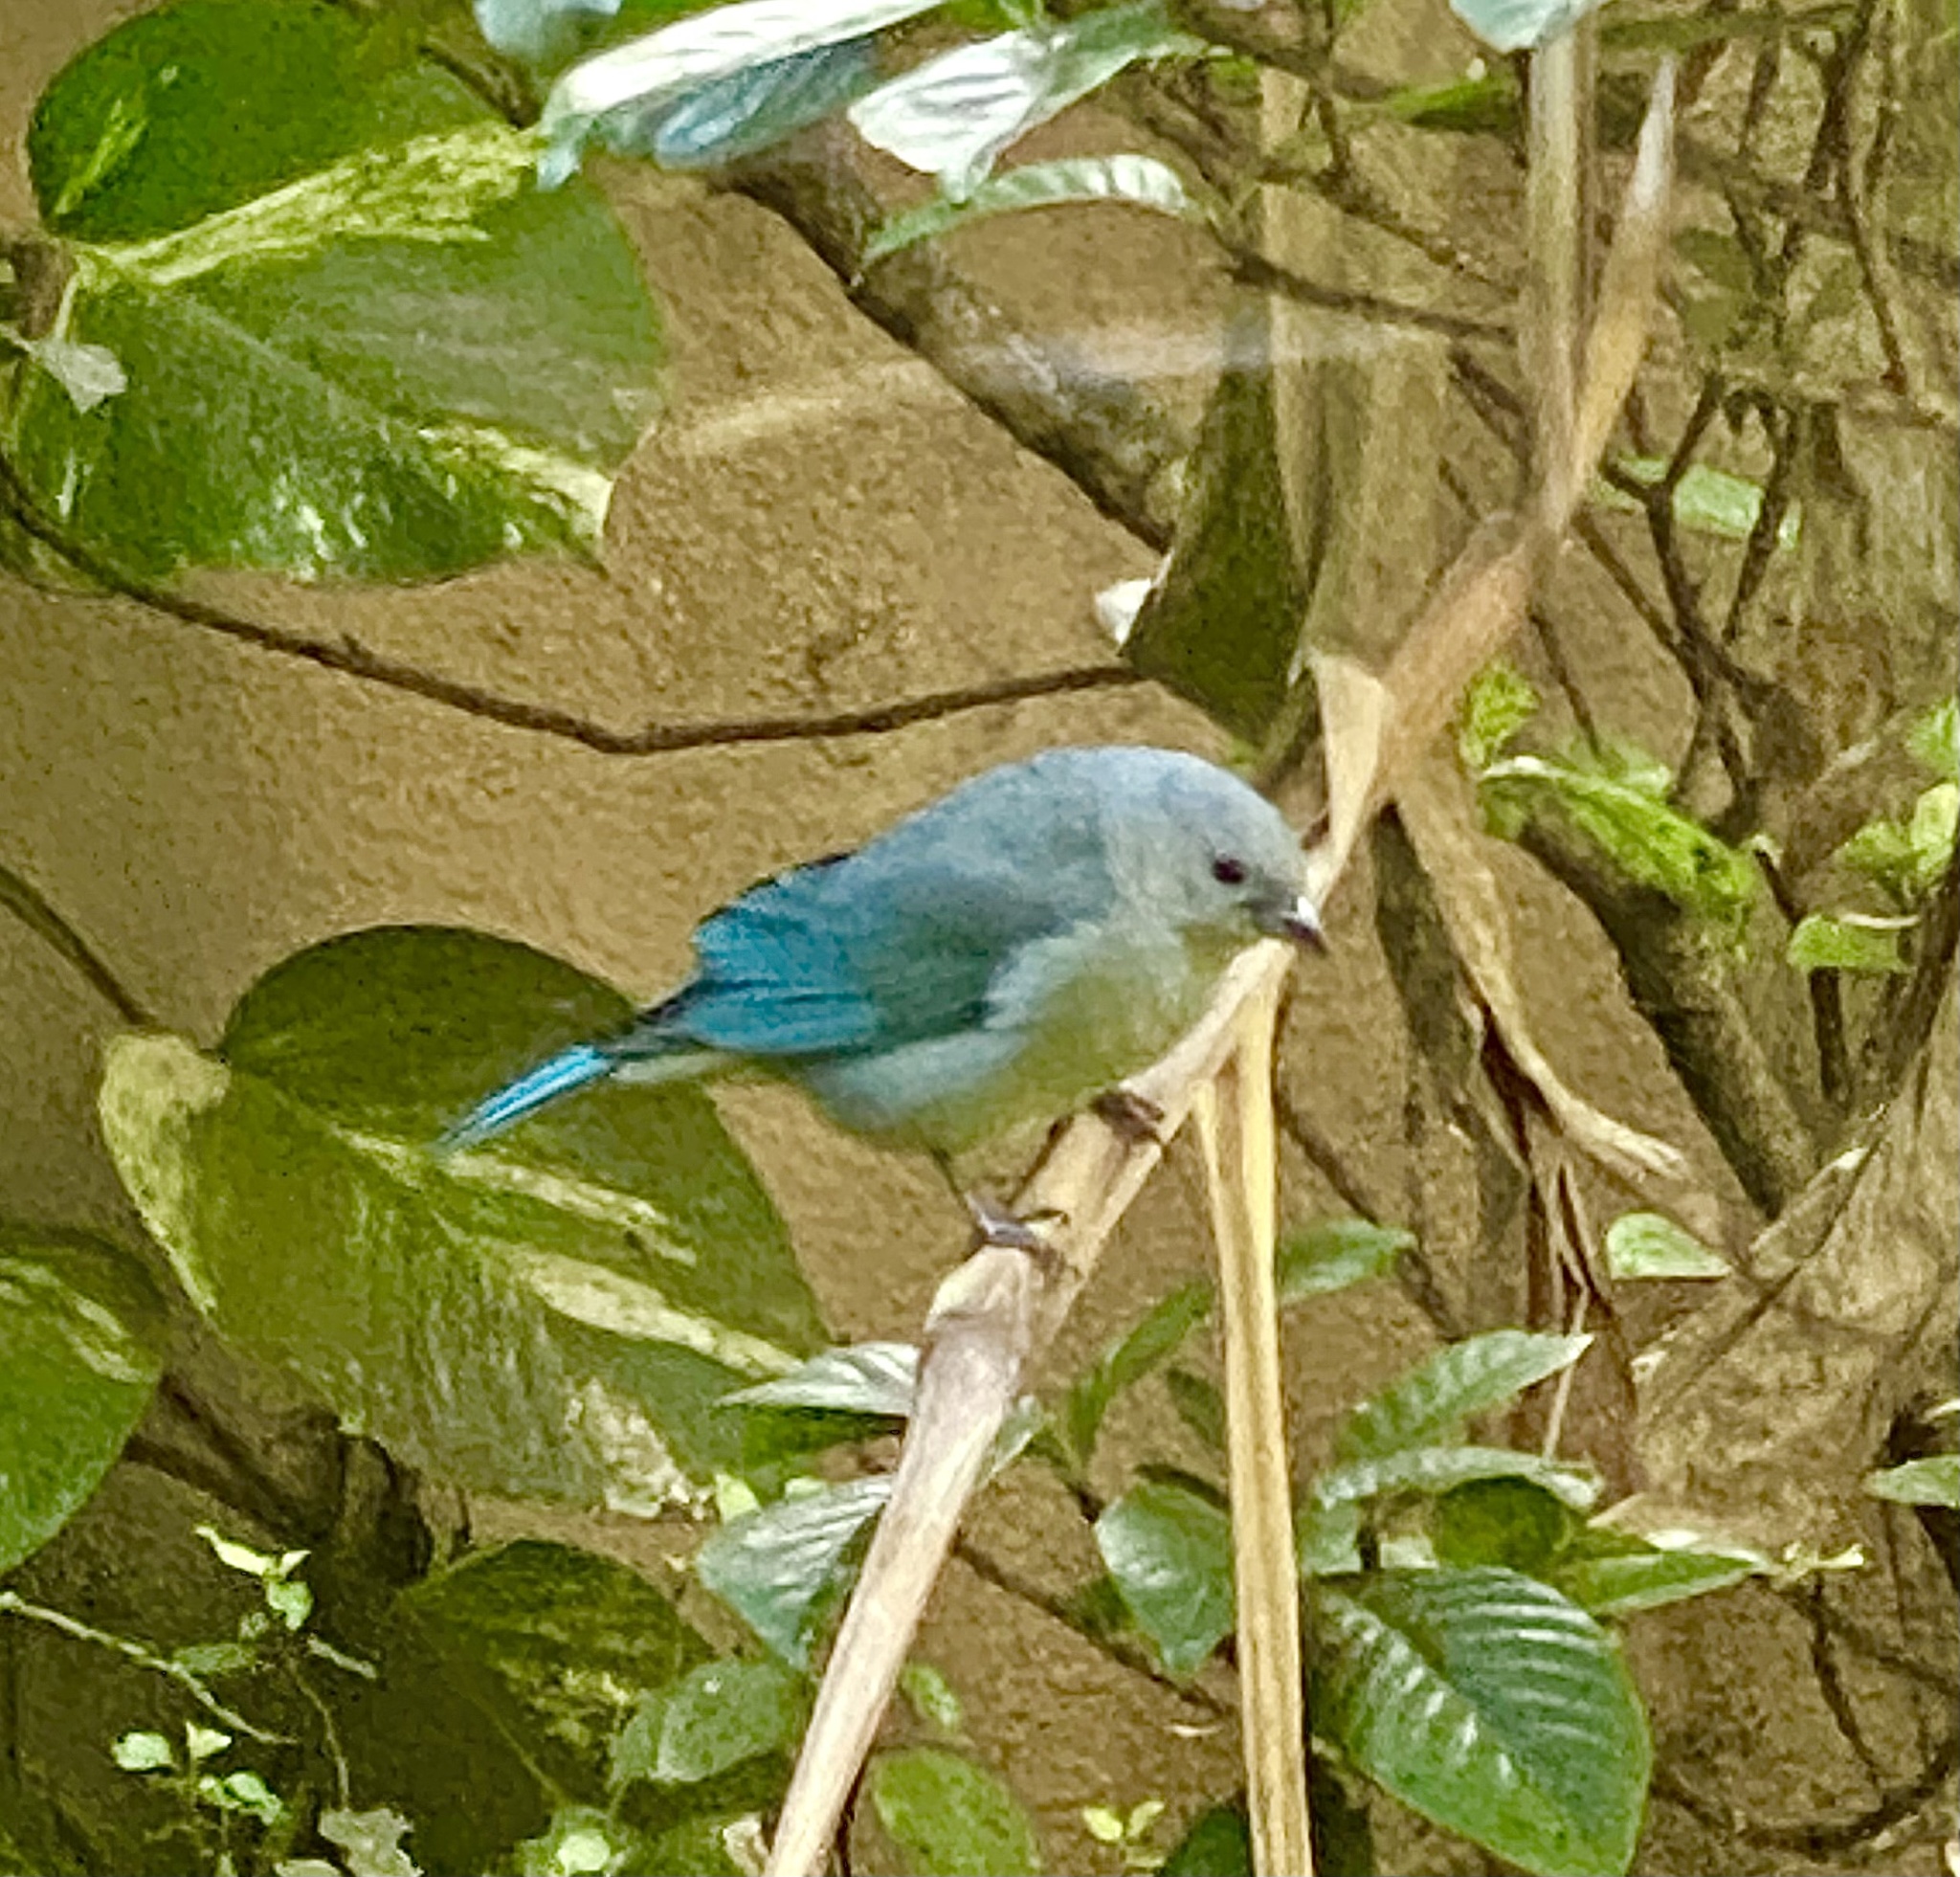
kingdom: Animalia
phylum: Chordata
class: Aves
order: Passeriformes
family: Thraupidae
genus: Thraupis
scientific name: Thraupis sayaca
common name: Sayaca tanager
